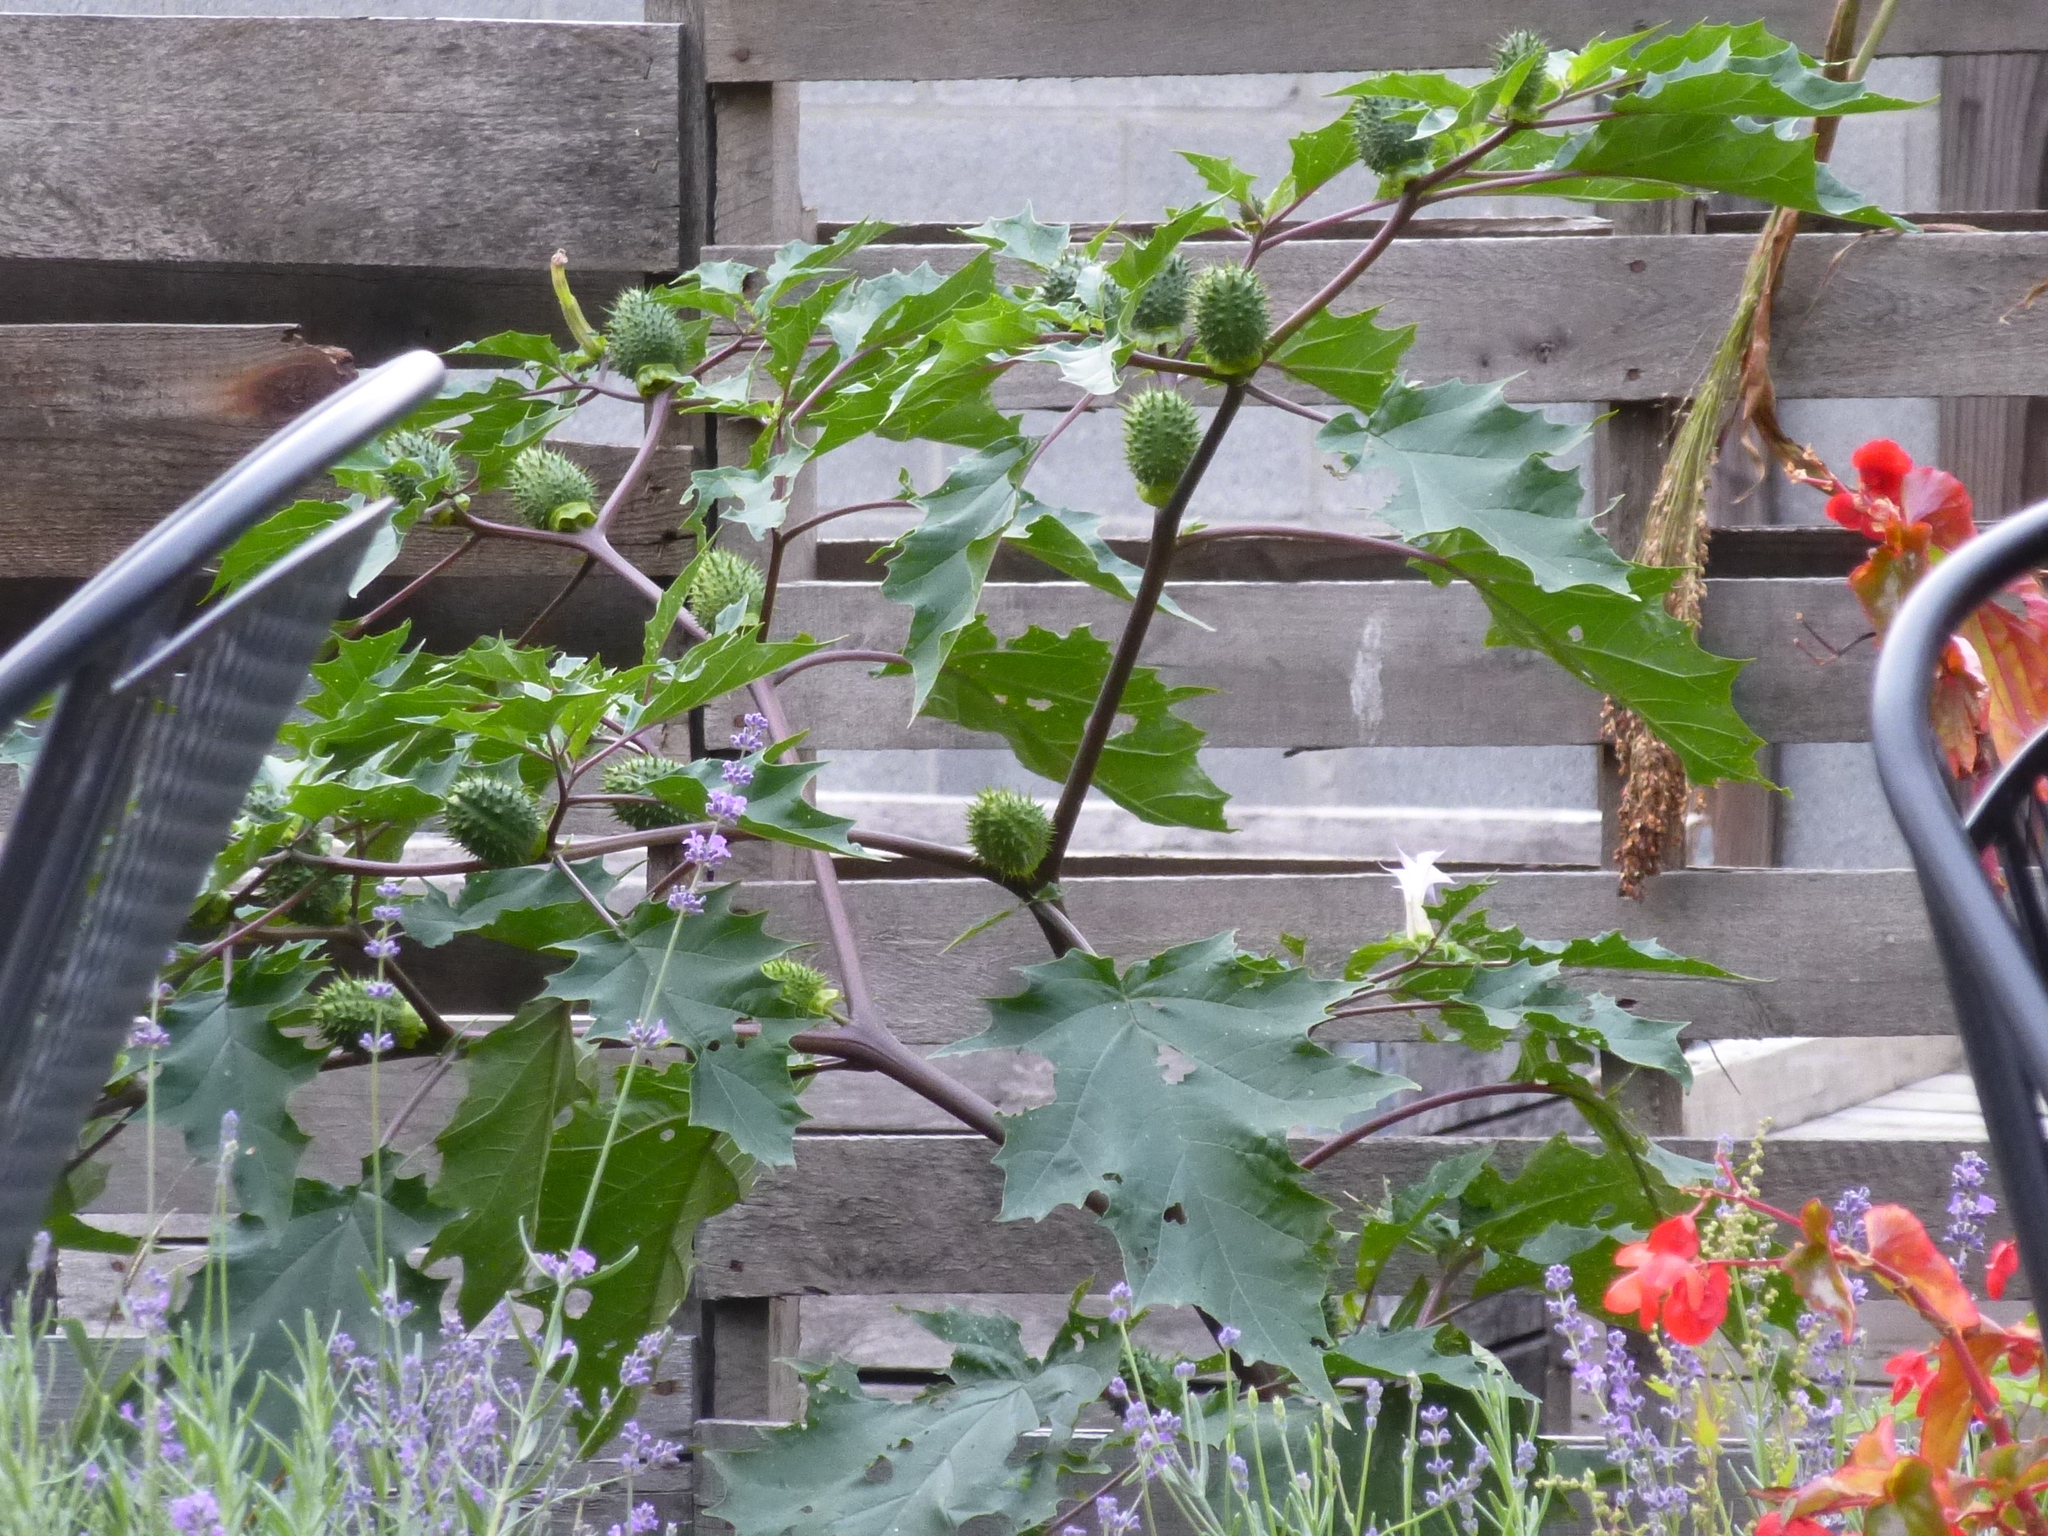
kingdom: Plantae
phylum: Tracheophyta
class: Magnoliopsida
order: Solanales
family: Solanaceae
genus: Datura
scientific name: Datura stramonium
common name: Thorn-apple
